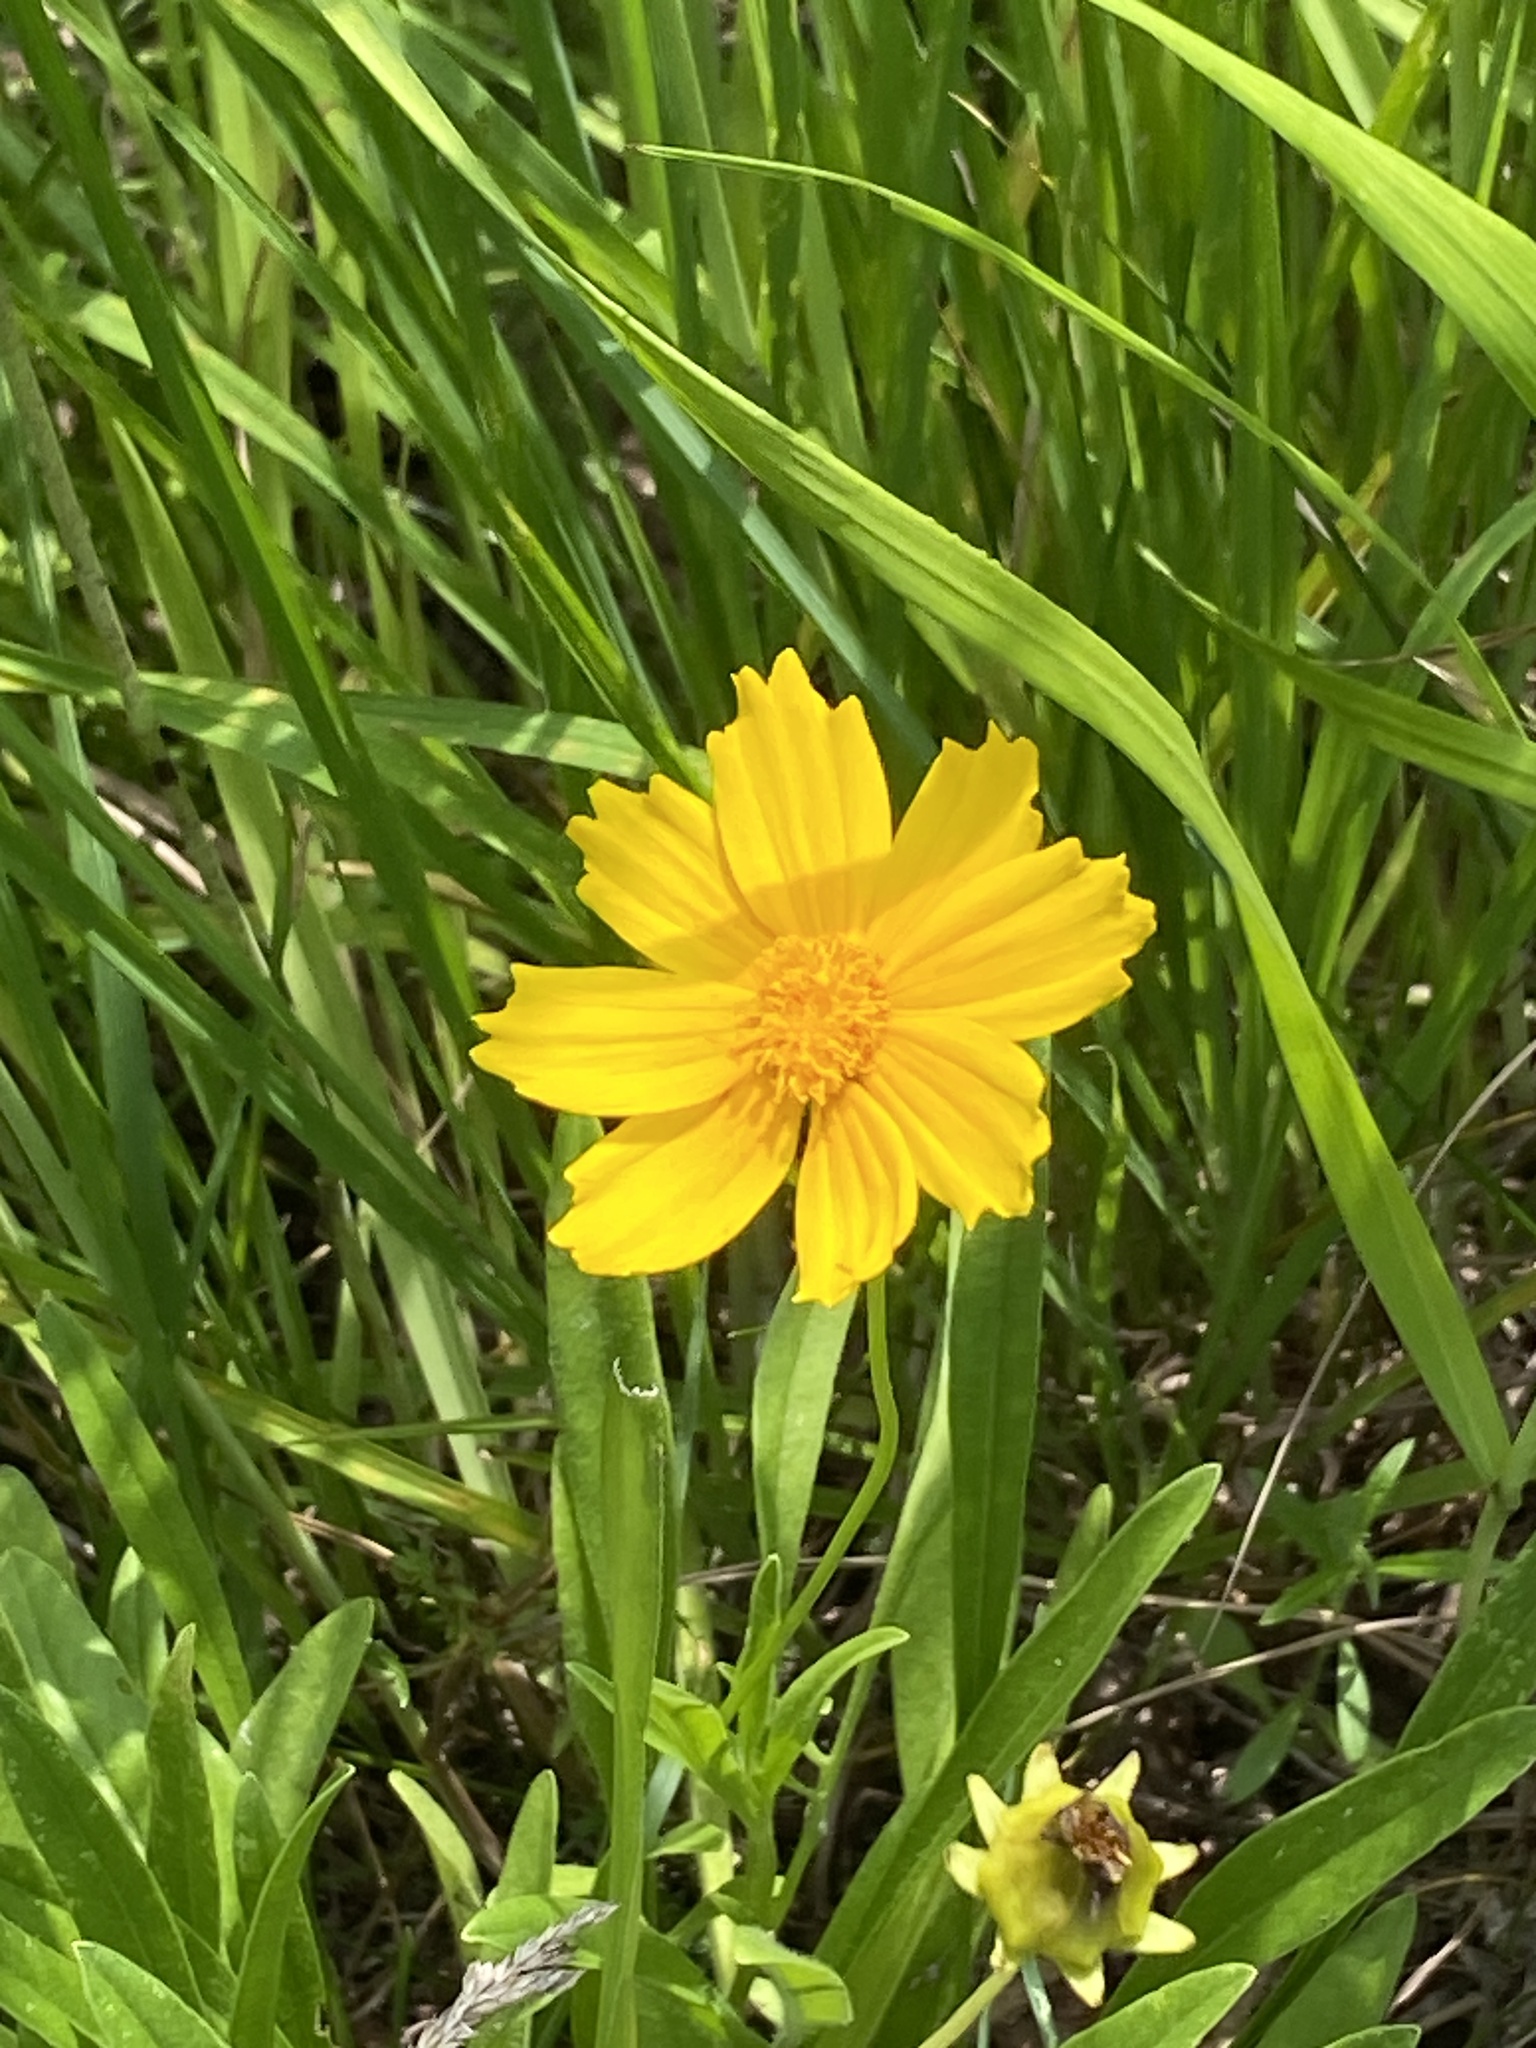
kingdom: Plantae
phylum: Tracheophyta
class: Magnoliopsida
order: Asterales
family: Asteraceae
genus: Coreopsis
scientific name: Coreopsis lanceolata
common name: Garden coreopsis
